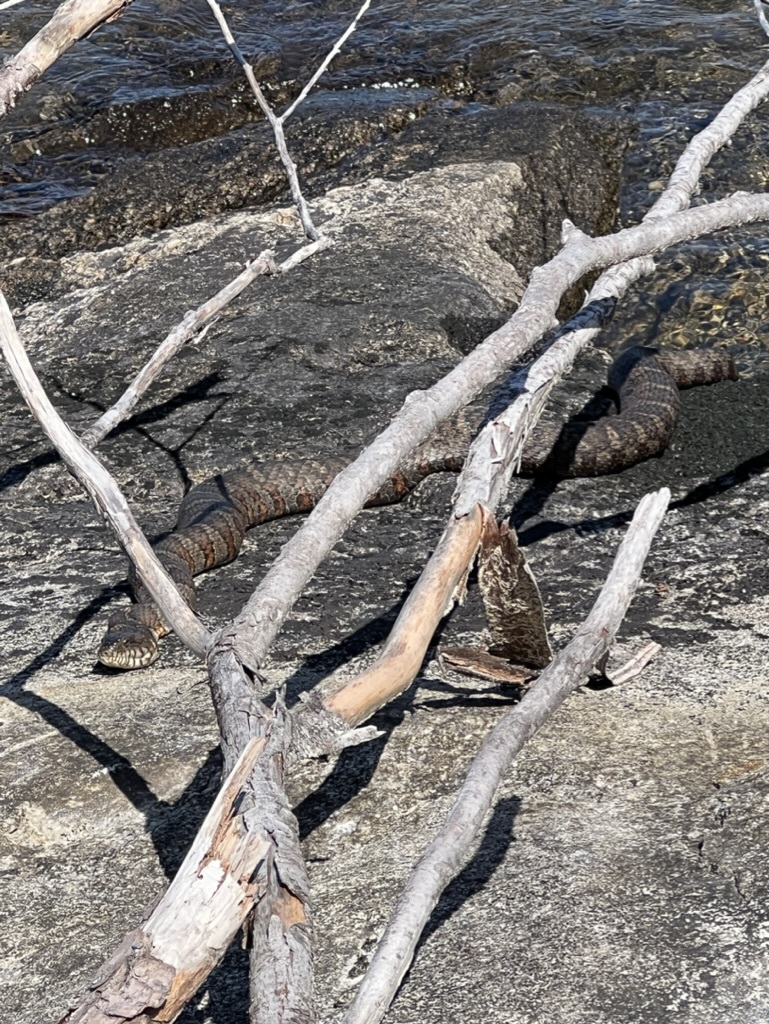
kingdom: Animalia
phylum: Chordata
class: Squamata
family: Colubridae
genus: Nerodia
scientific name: Nerodia sipedon
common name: Northern water snake
